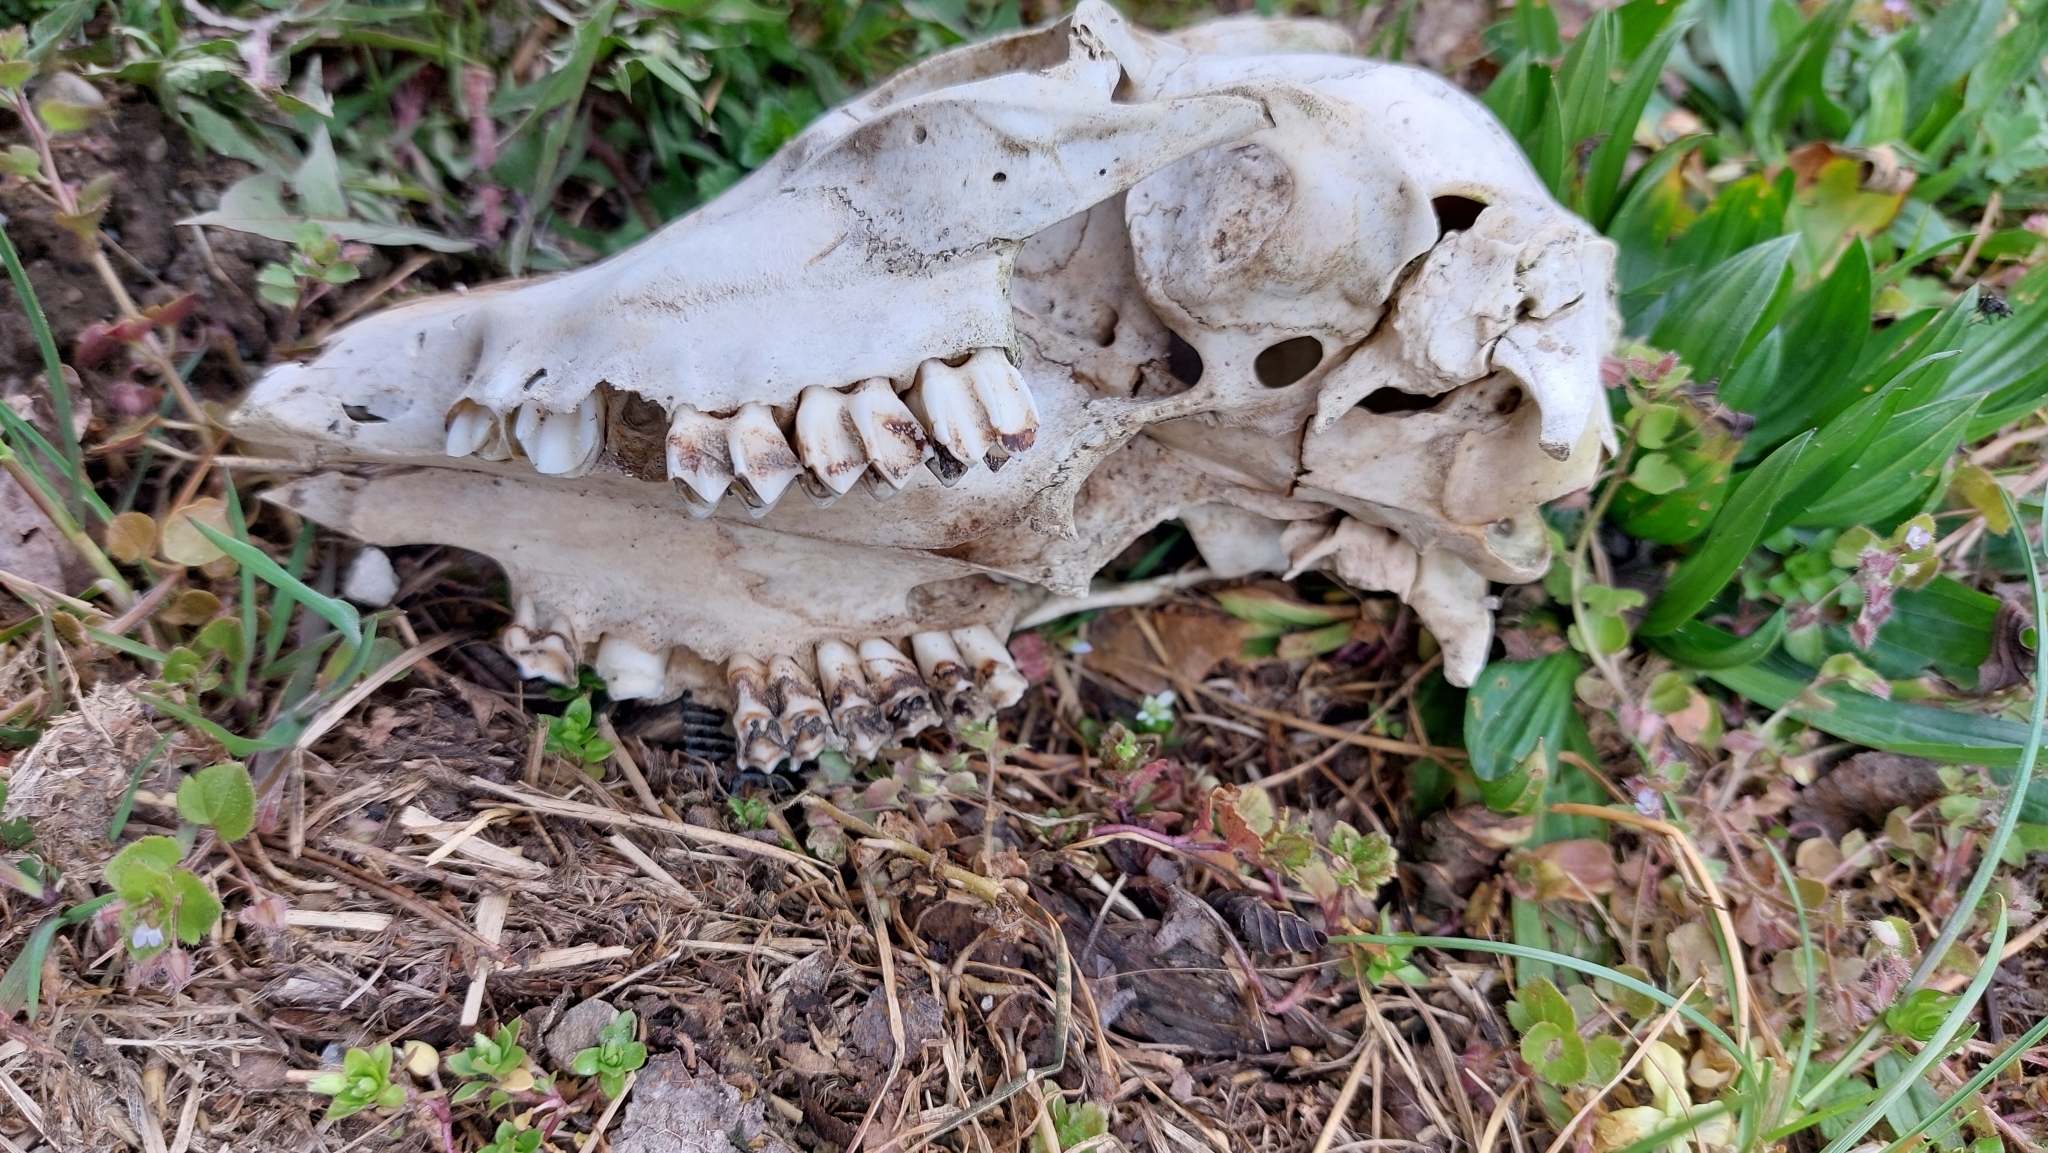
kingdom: Animalia
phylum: Chordata
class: Mammalia
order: Artiodactyla
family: Cervidae
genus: Capreolus
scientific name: Capreolus capreolus
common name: Western roe deer
